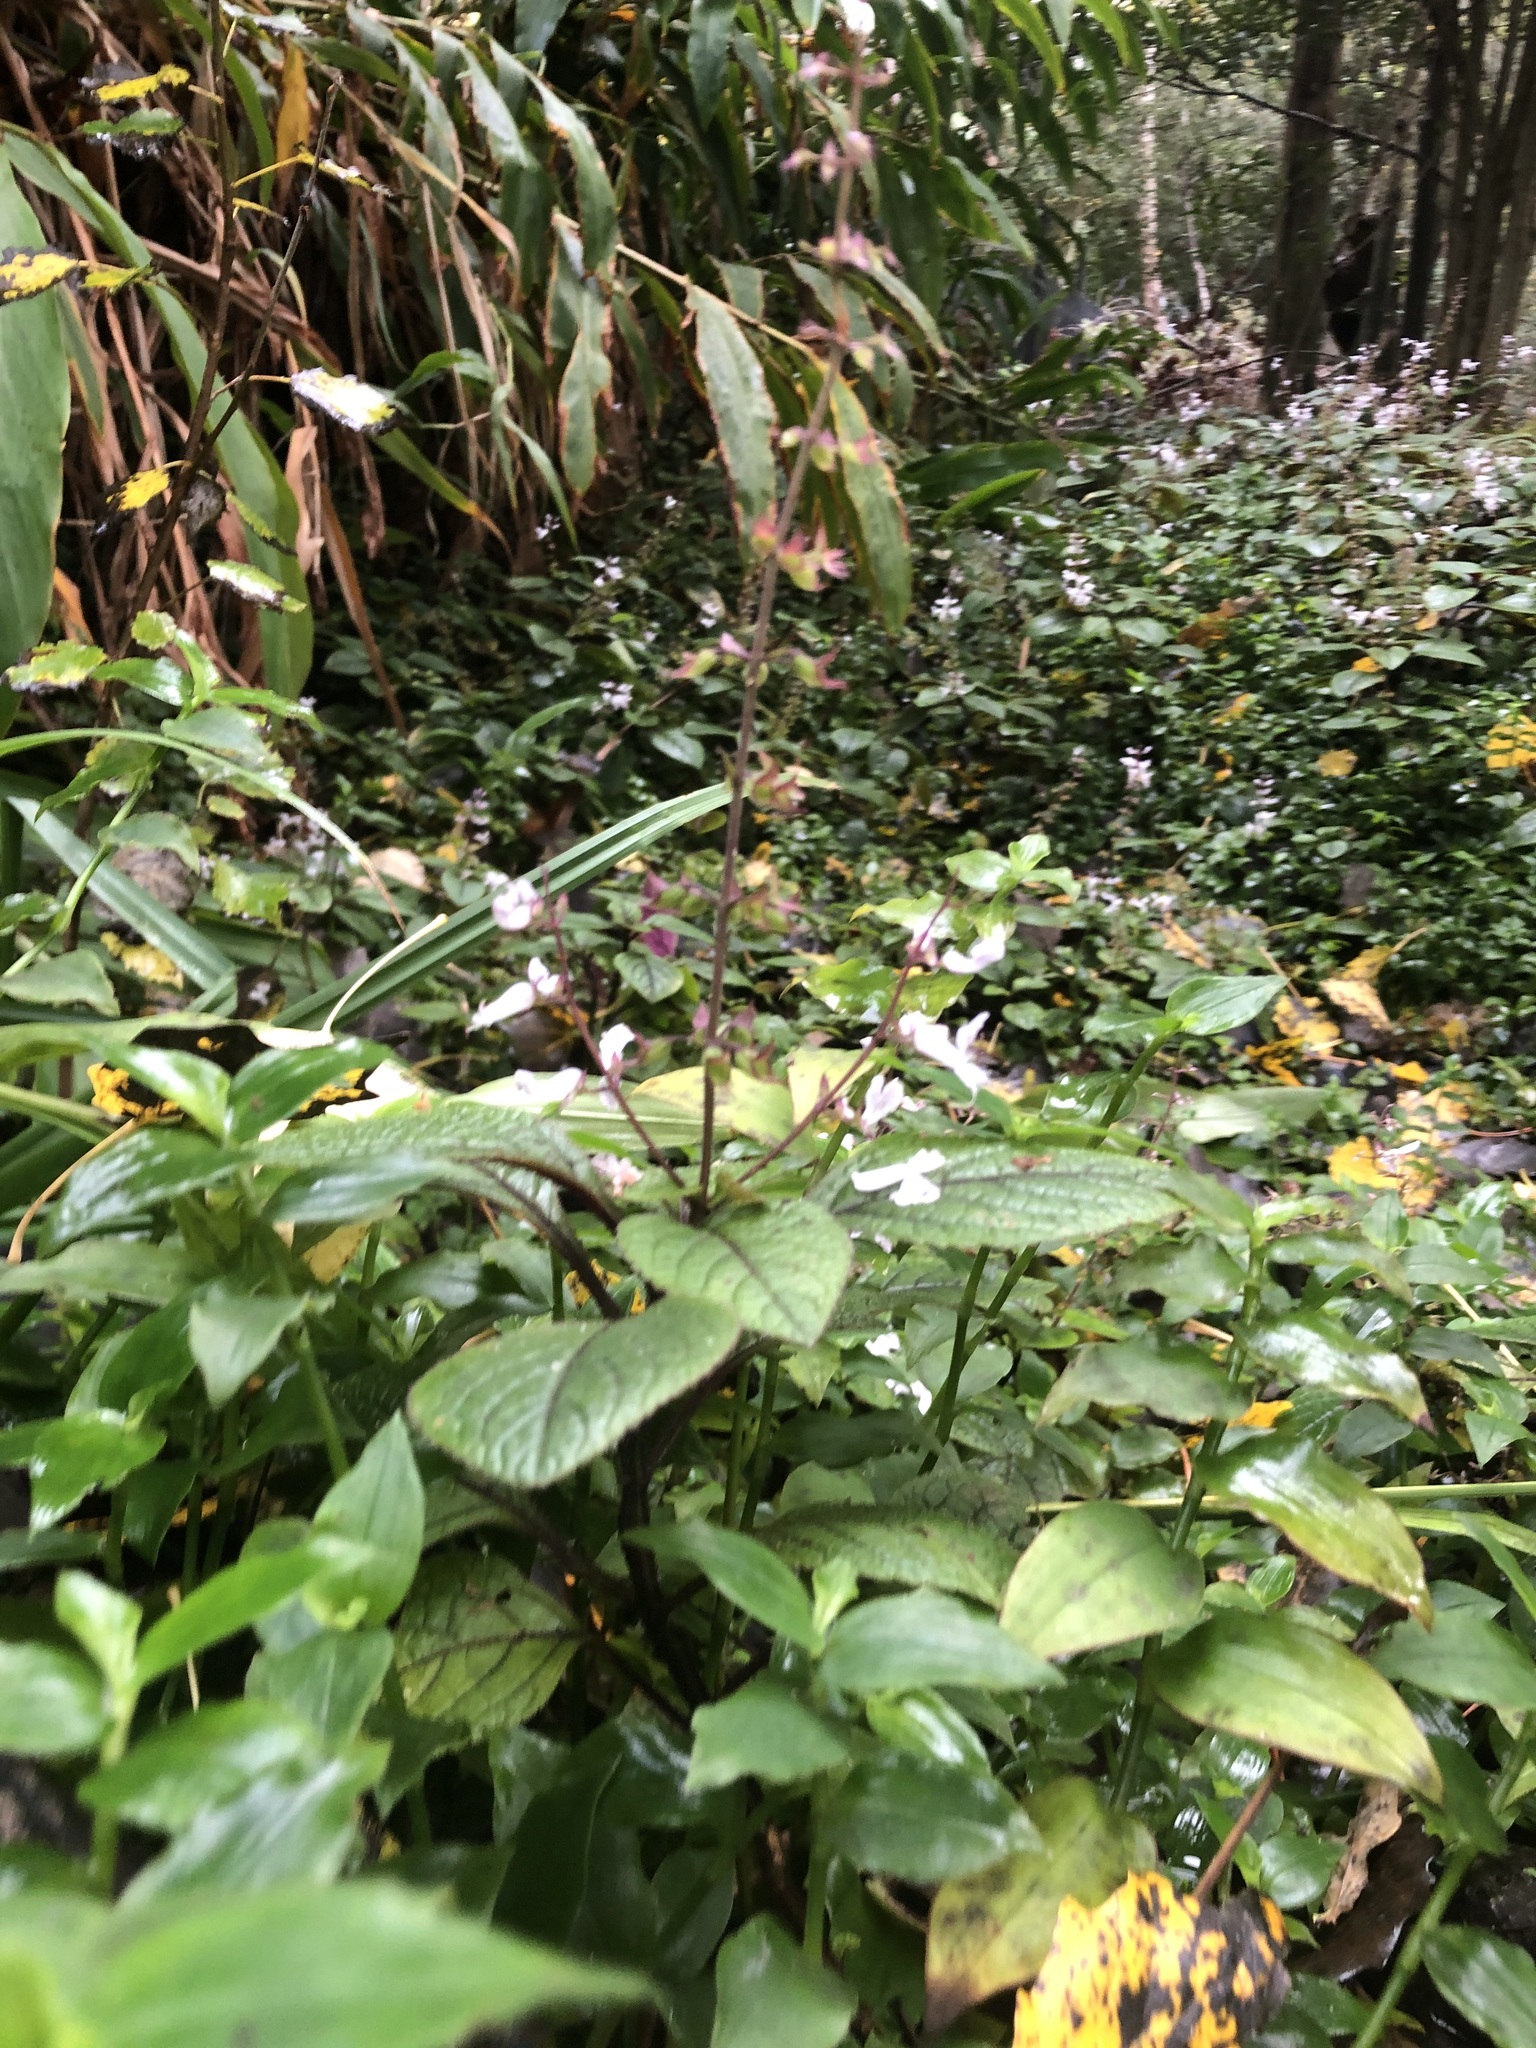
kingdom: Plantae
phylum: Tracheophyta
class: Magnoliopsida
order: Lamiales
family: Lamiaceae
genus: Plectranthus
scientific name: Plectranthus ciliatus
